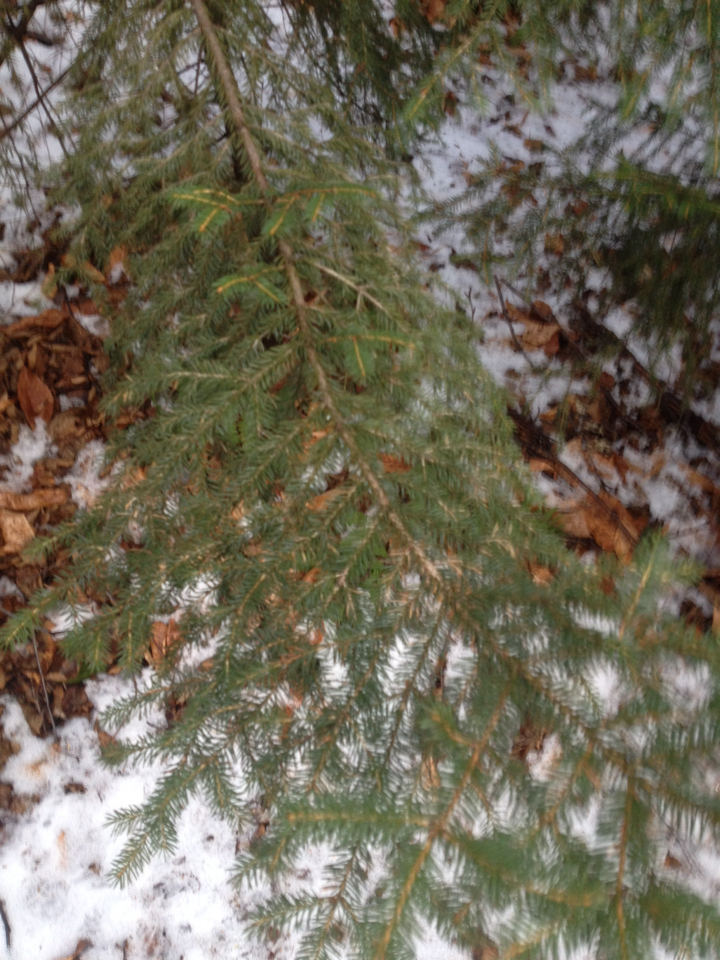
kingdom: Plantae
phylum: Tracheophyta
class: Pinopsida
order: Pinales
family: Pinaceae
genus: Picea
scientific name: Picea rubens
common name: Red spruce
